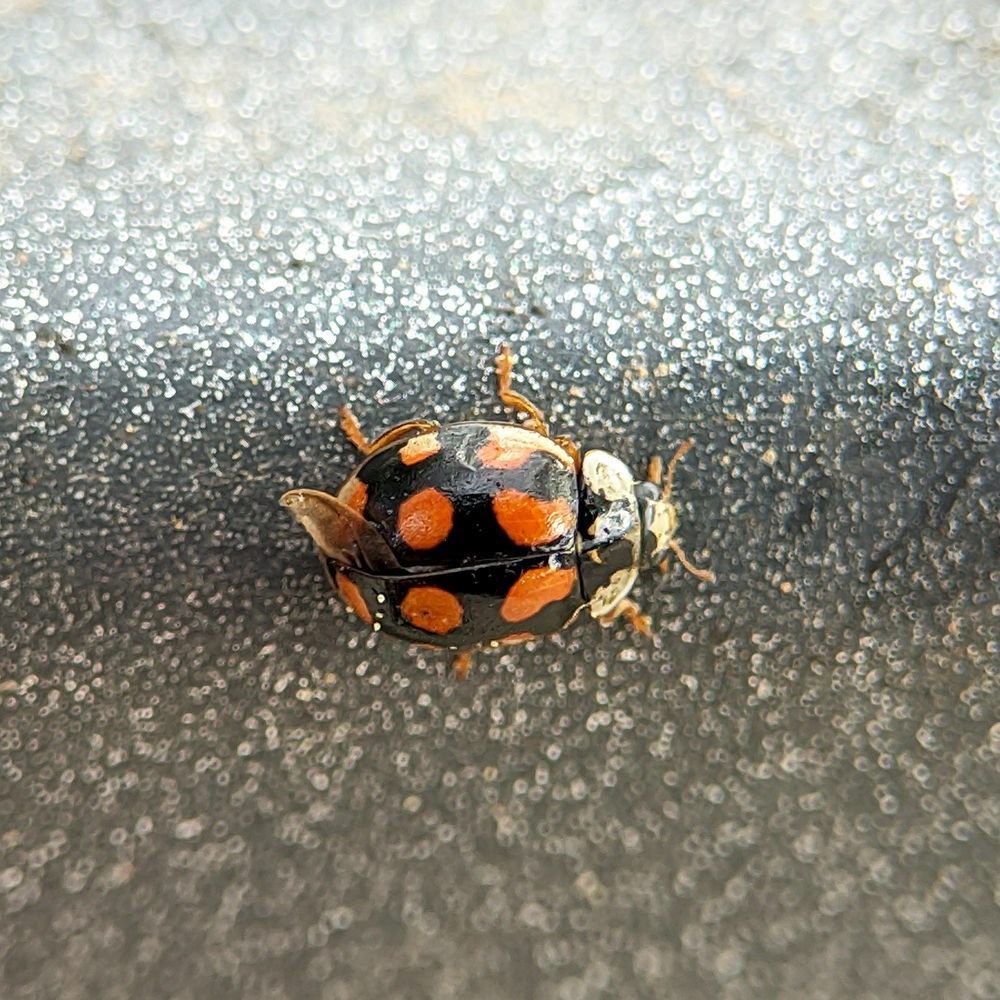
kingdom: Animalia
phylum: Arthropoda
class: Insecta
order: Coleoptera
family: Coccinellidae
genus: Adalia
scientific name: Adalia decempunctata
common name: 10-spot ladybird
